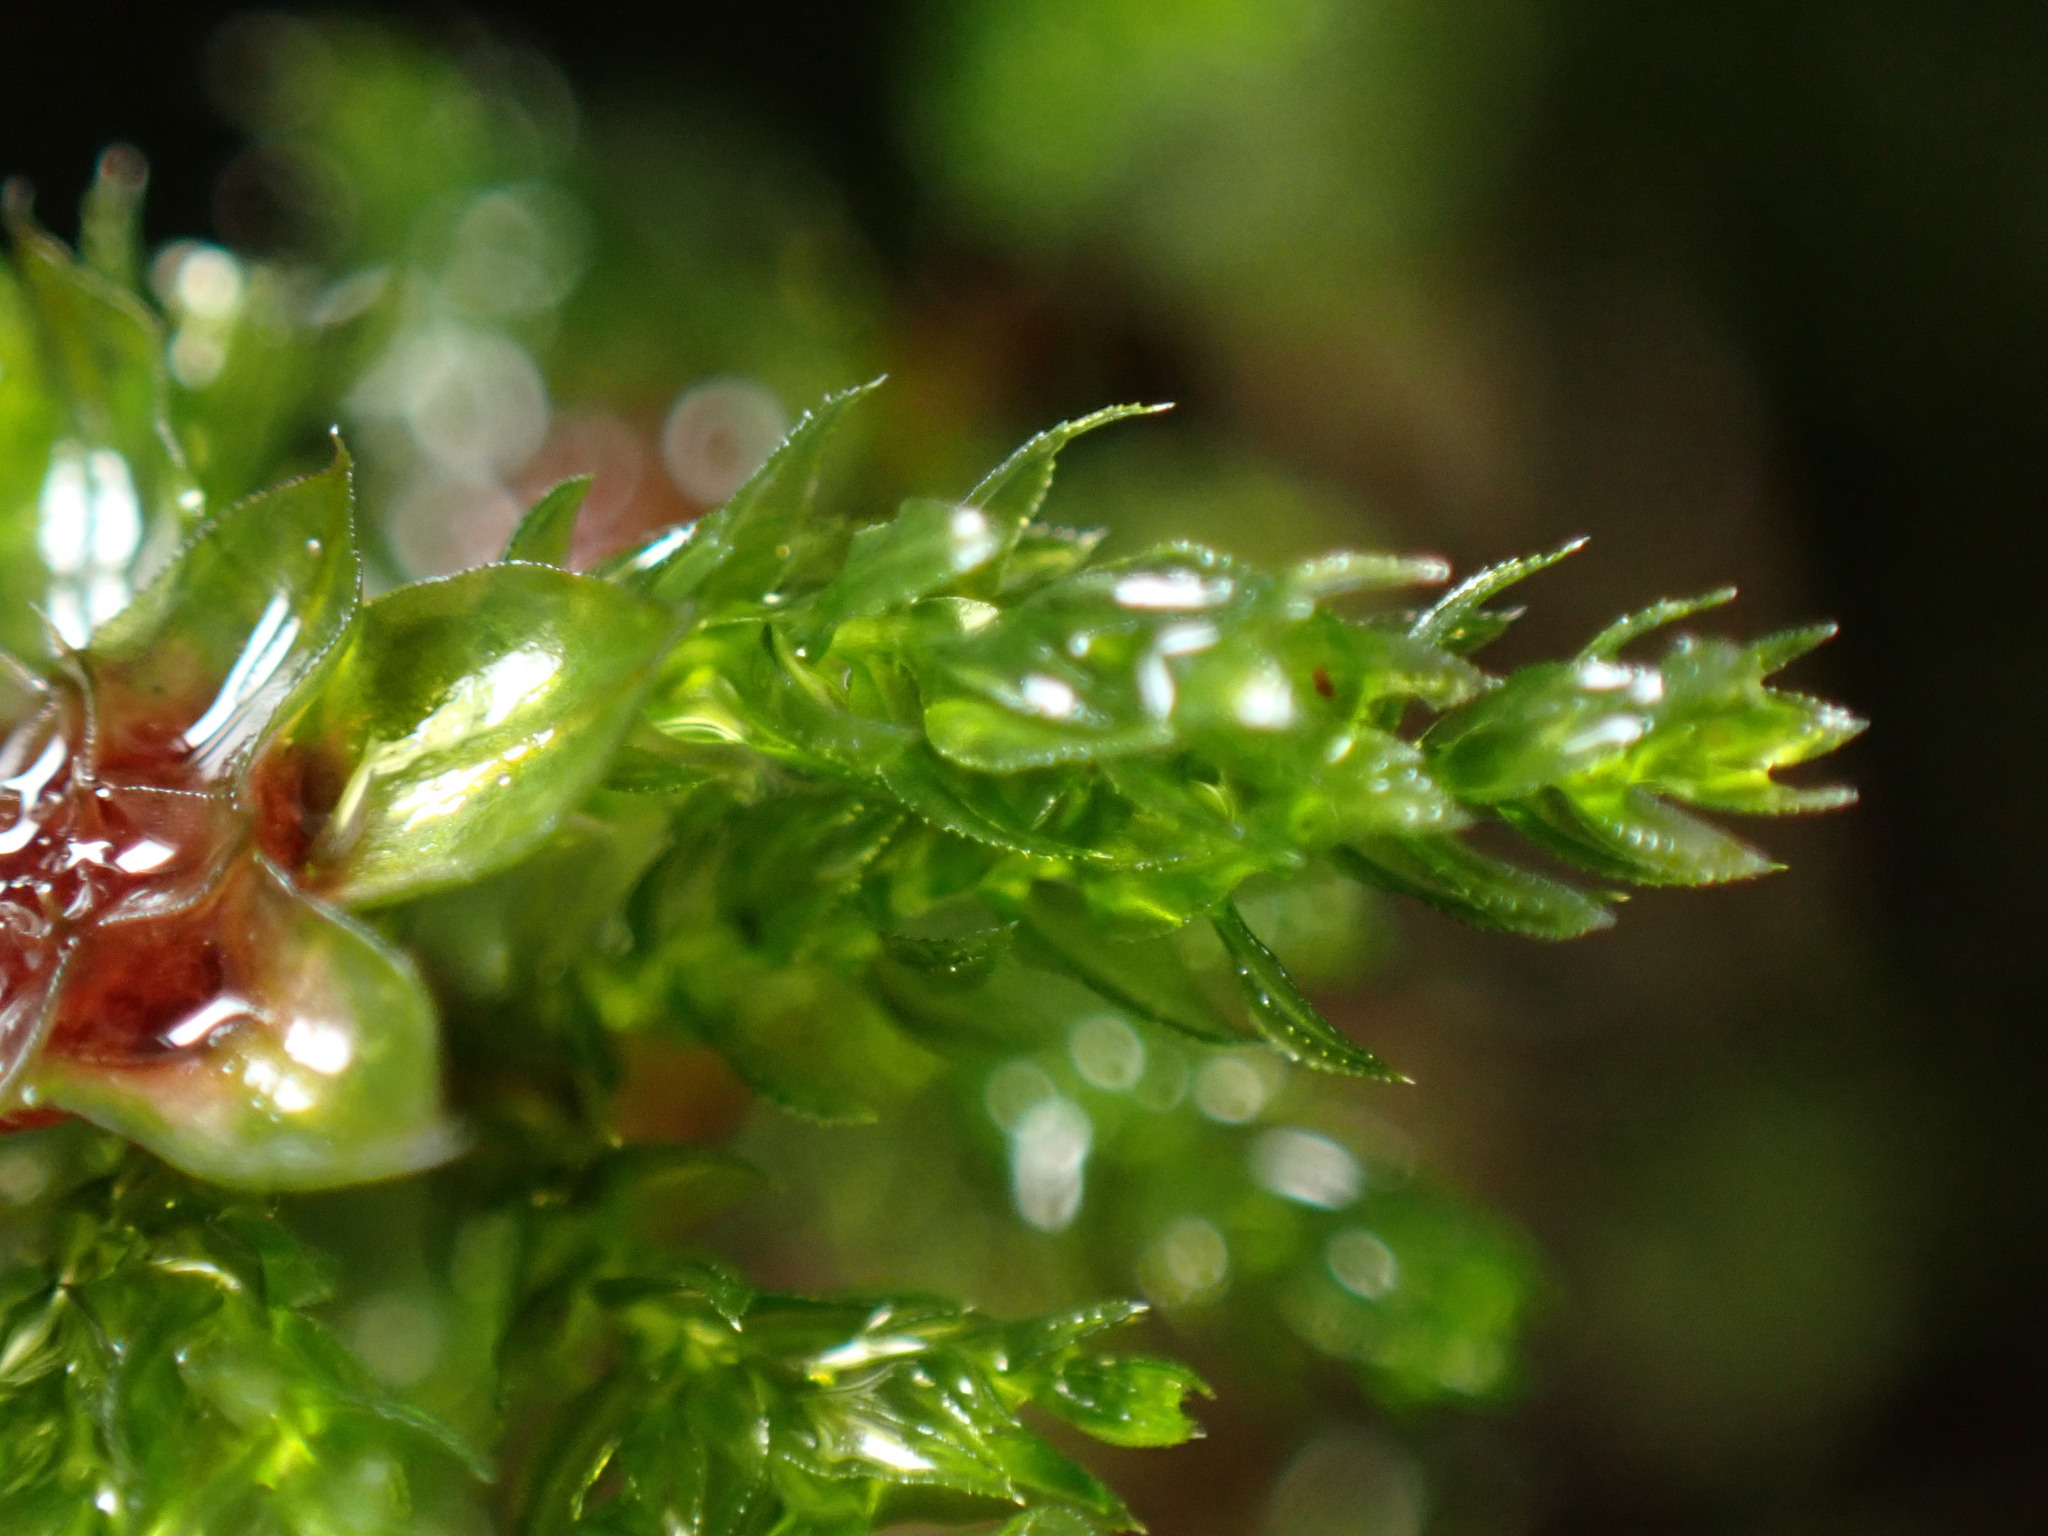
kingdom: Plantae
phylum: Bryophyta
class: Bryopsida
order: Bryales
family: Mniaceae
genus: Leucolepis
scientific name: Leucolepis acanthoneura
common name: Leucolepis umbrella moss
